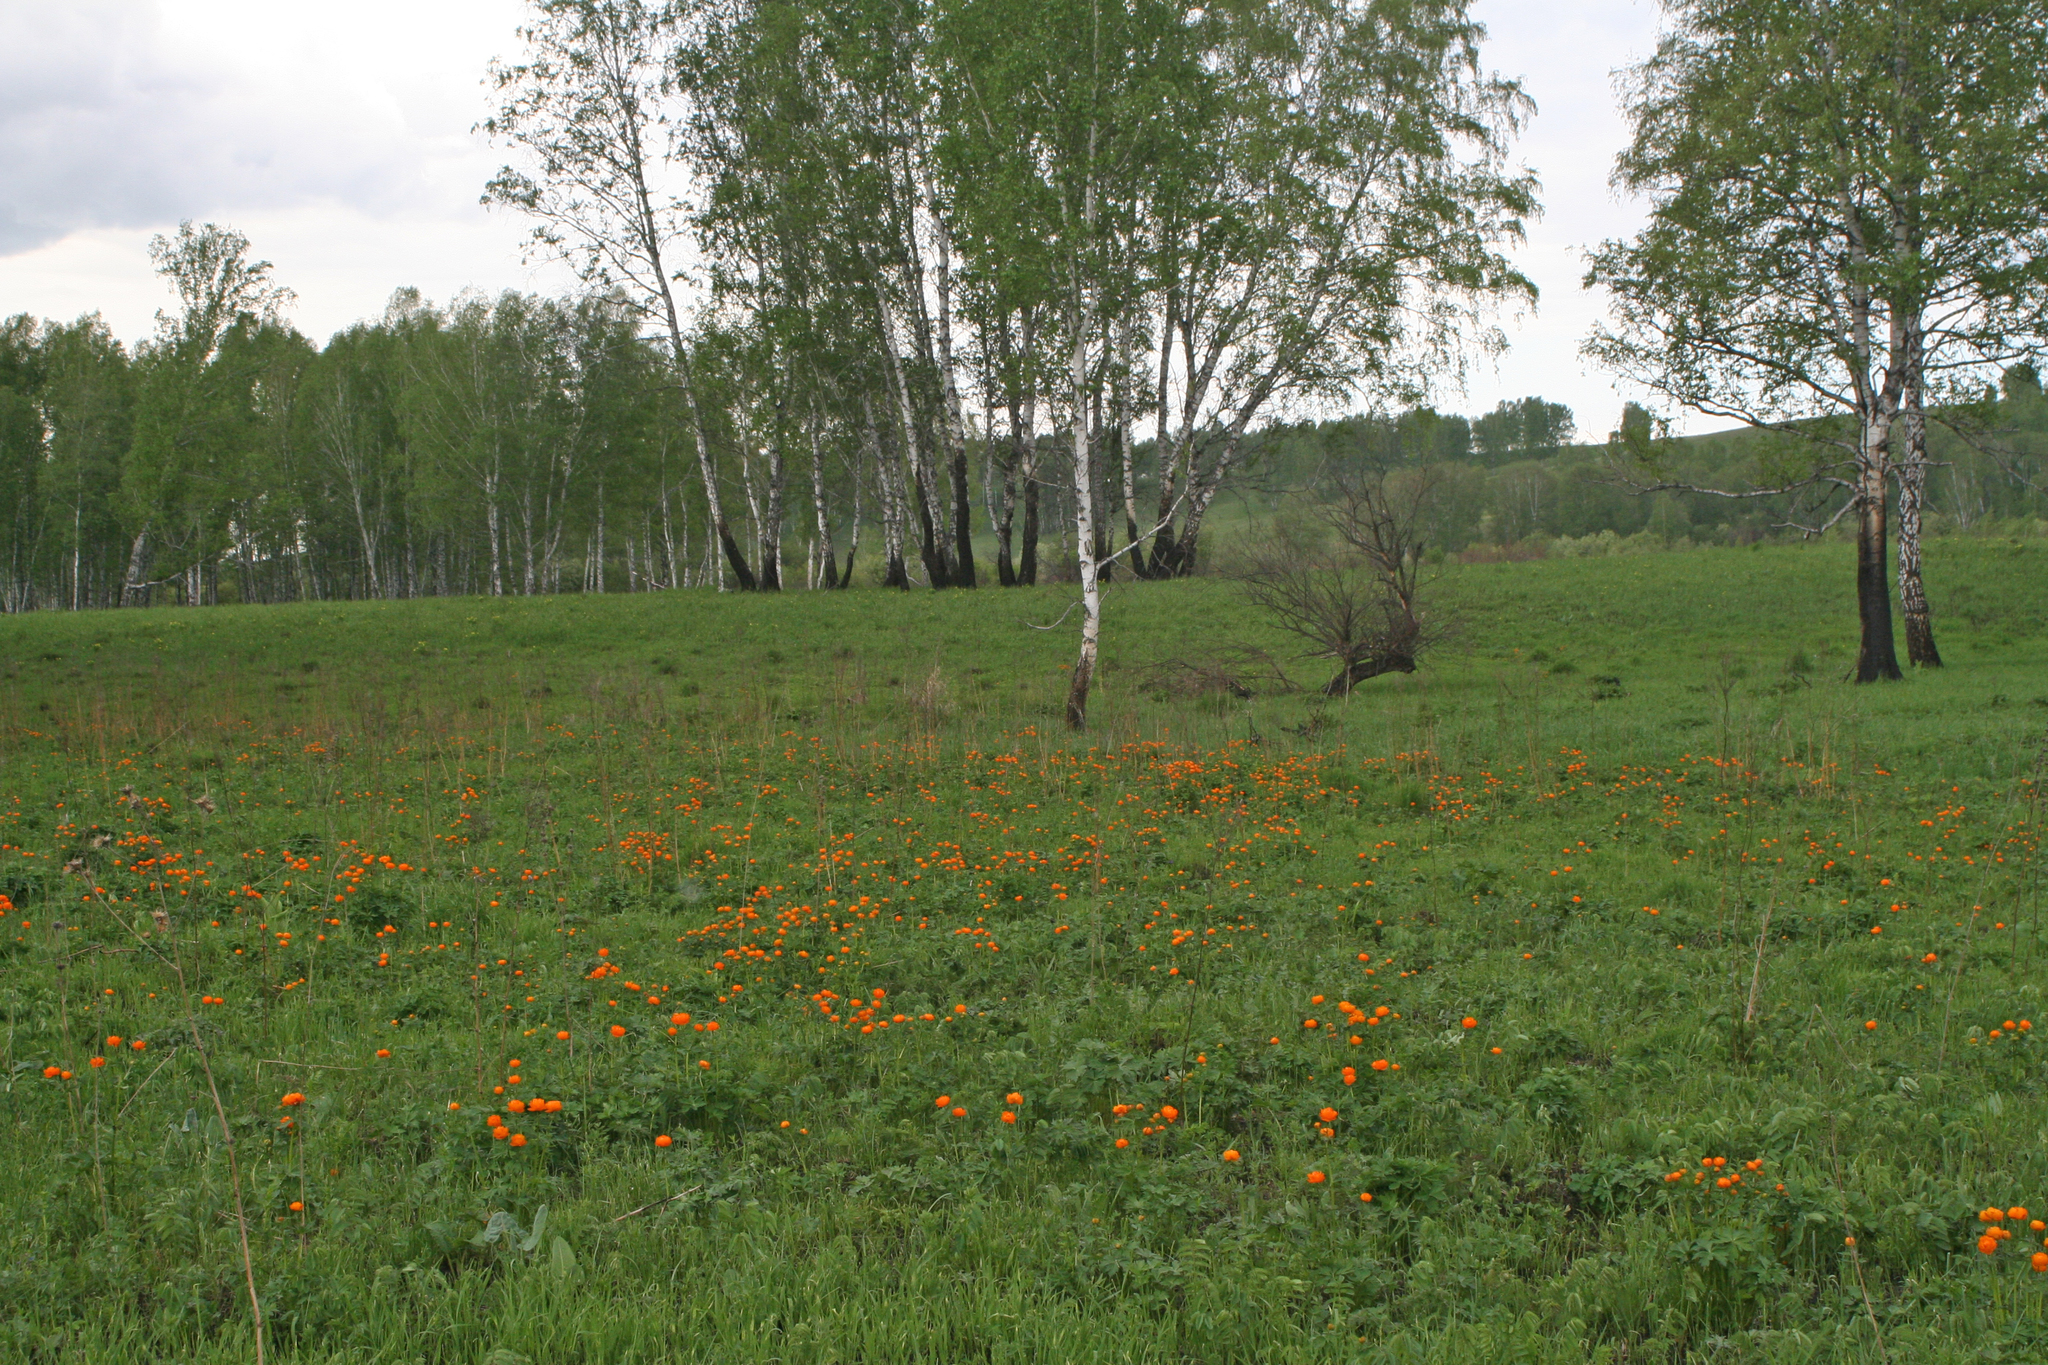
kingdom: Plantae
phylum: Tracheophyta
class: Magnoliopsida
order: Ranunculales
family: Ranunculaceae
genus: Trollius
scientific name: Trollius asiaticus
